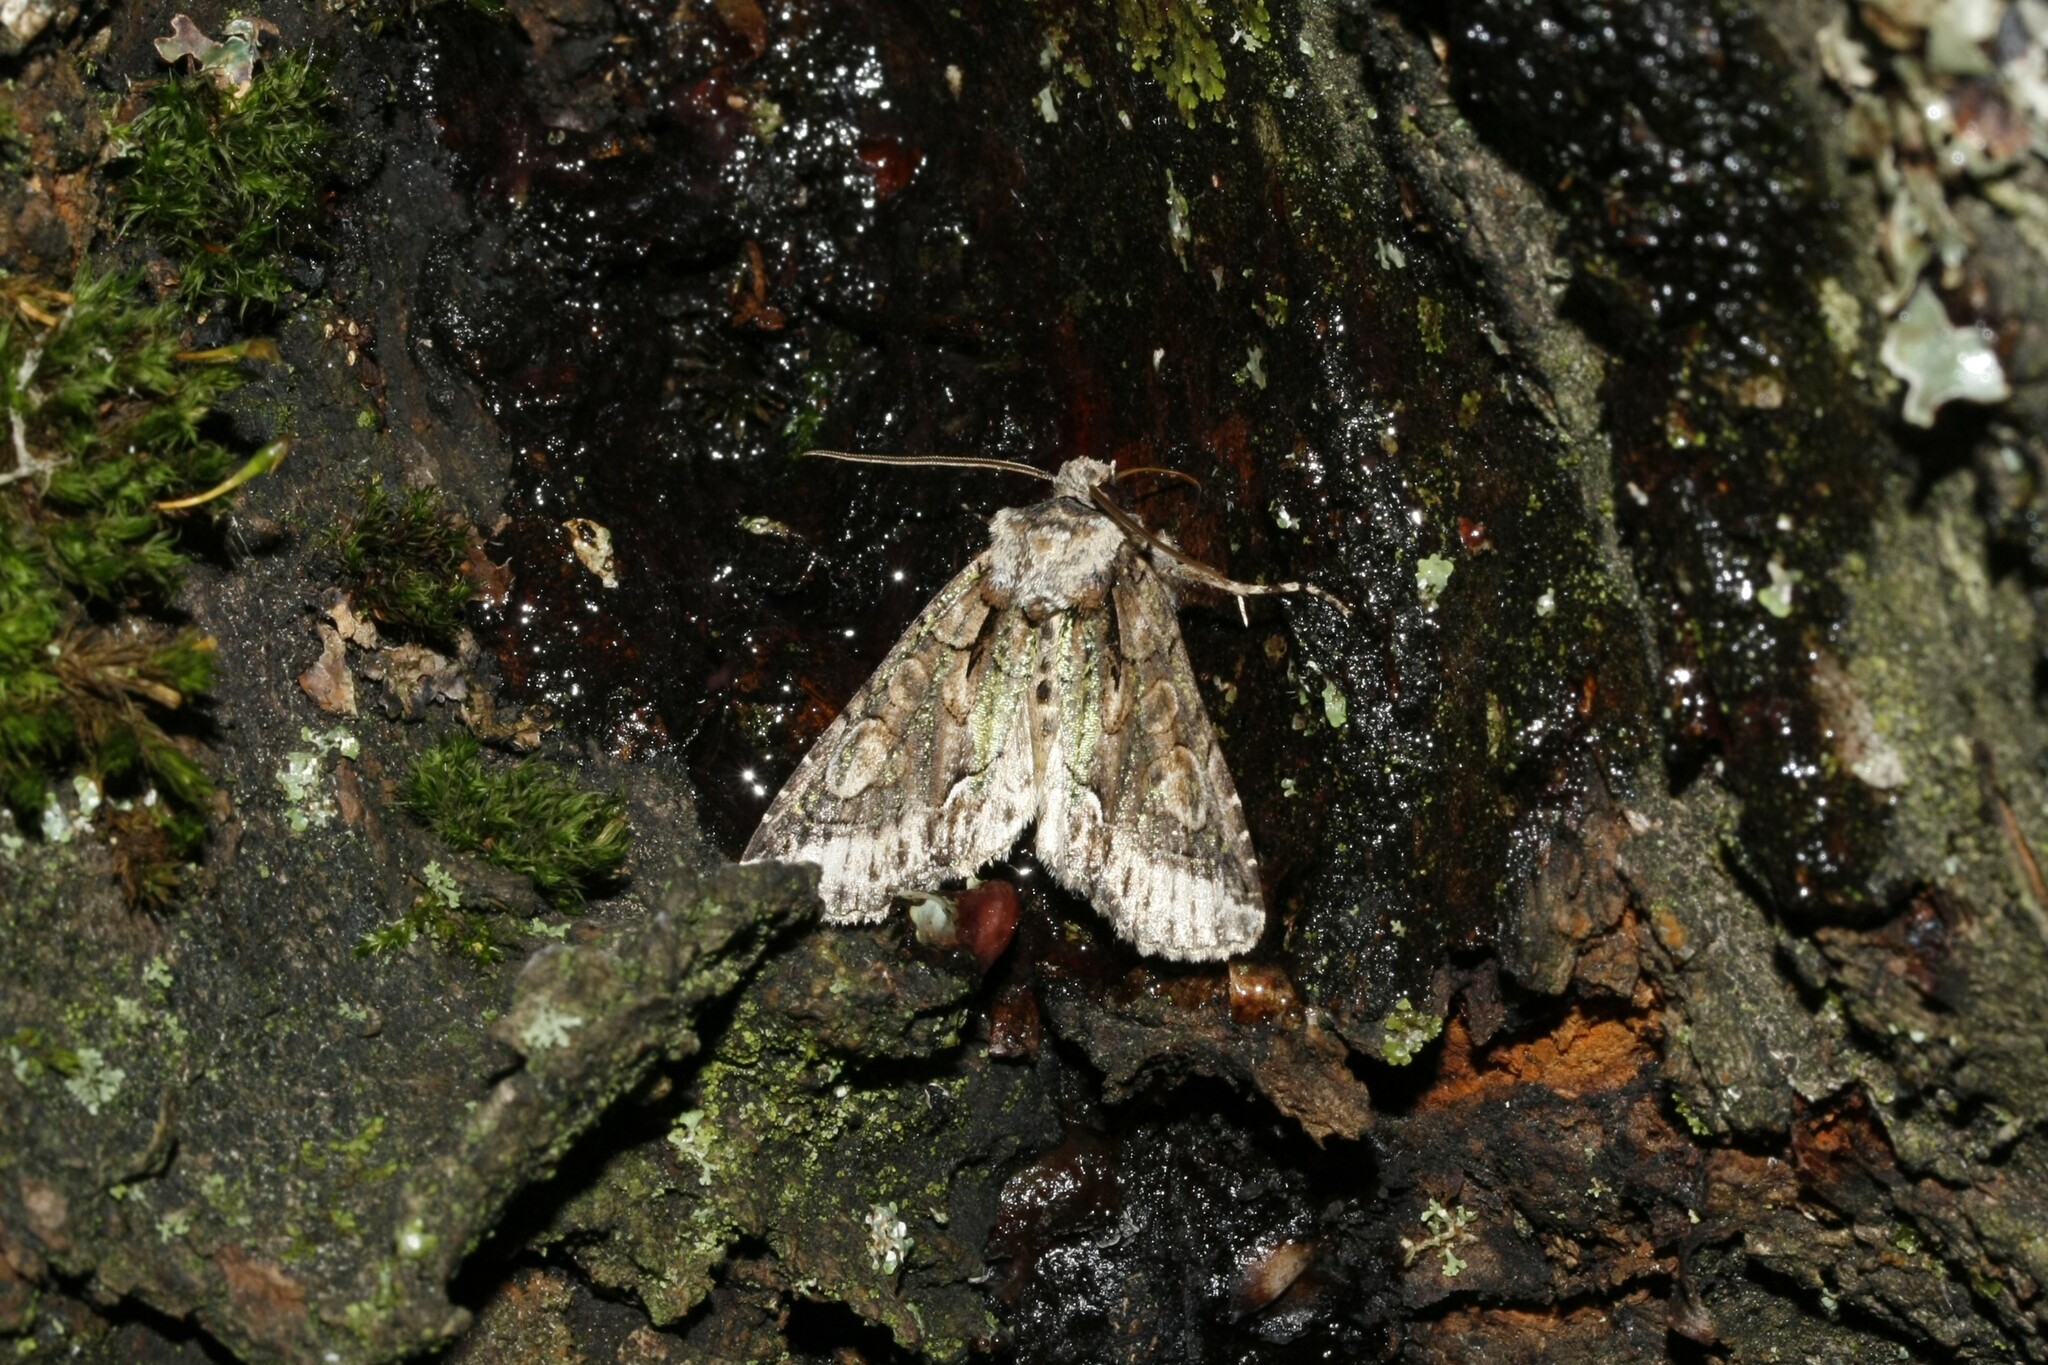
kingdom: Animalia
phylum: Arthropoda
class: Insecta
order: Lepidoptera
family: Noctuidae
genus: Allophyes
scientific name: Allophyes oxyacanthae
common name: Green-brindled crescent
